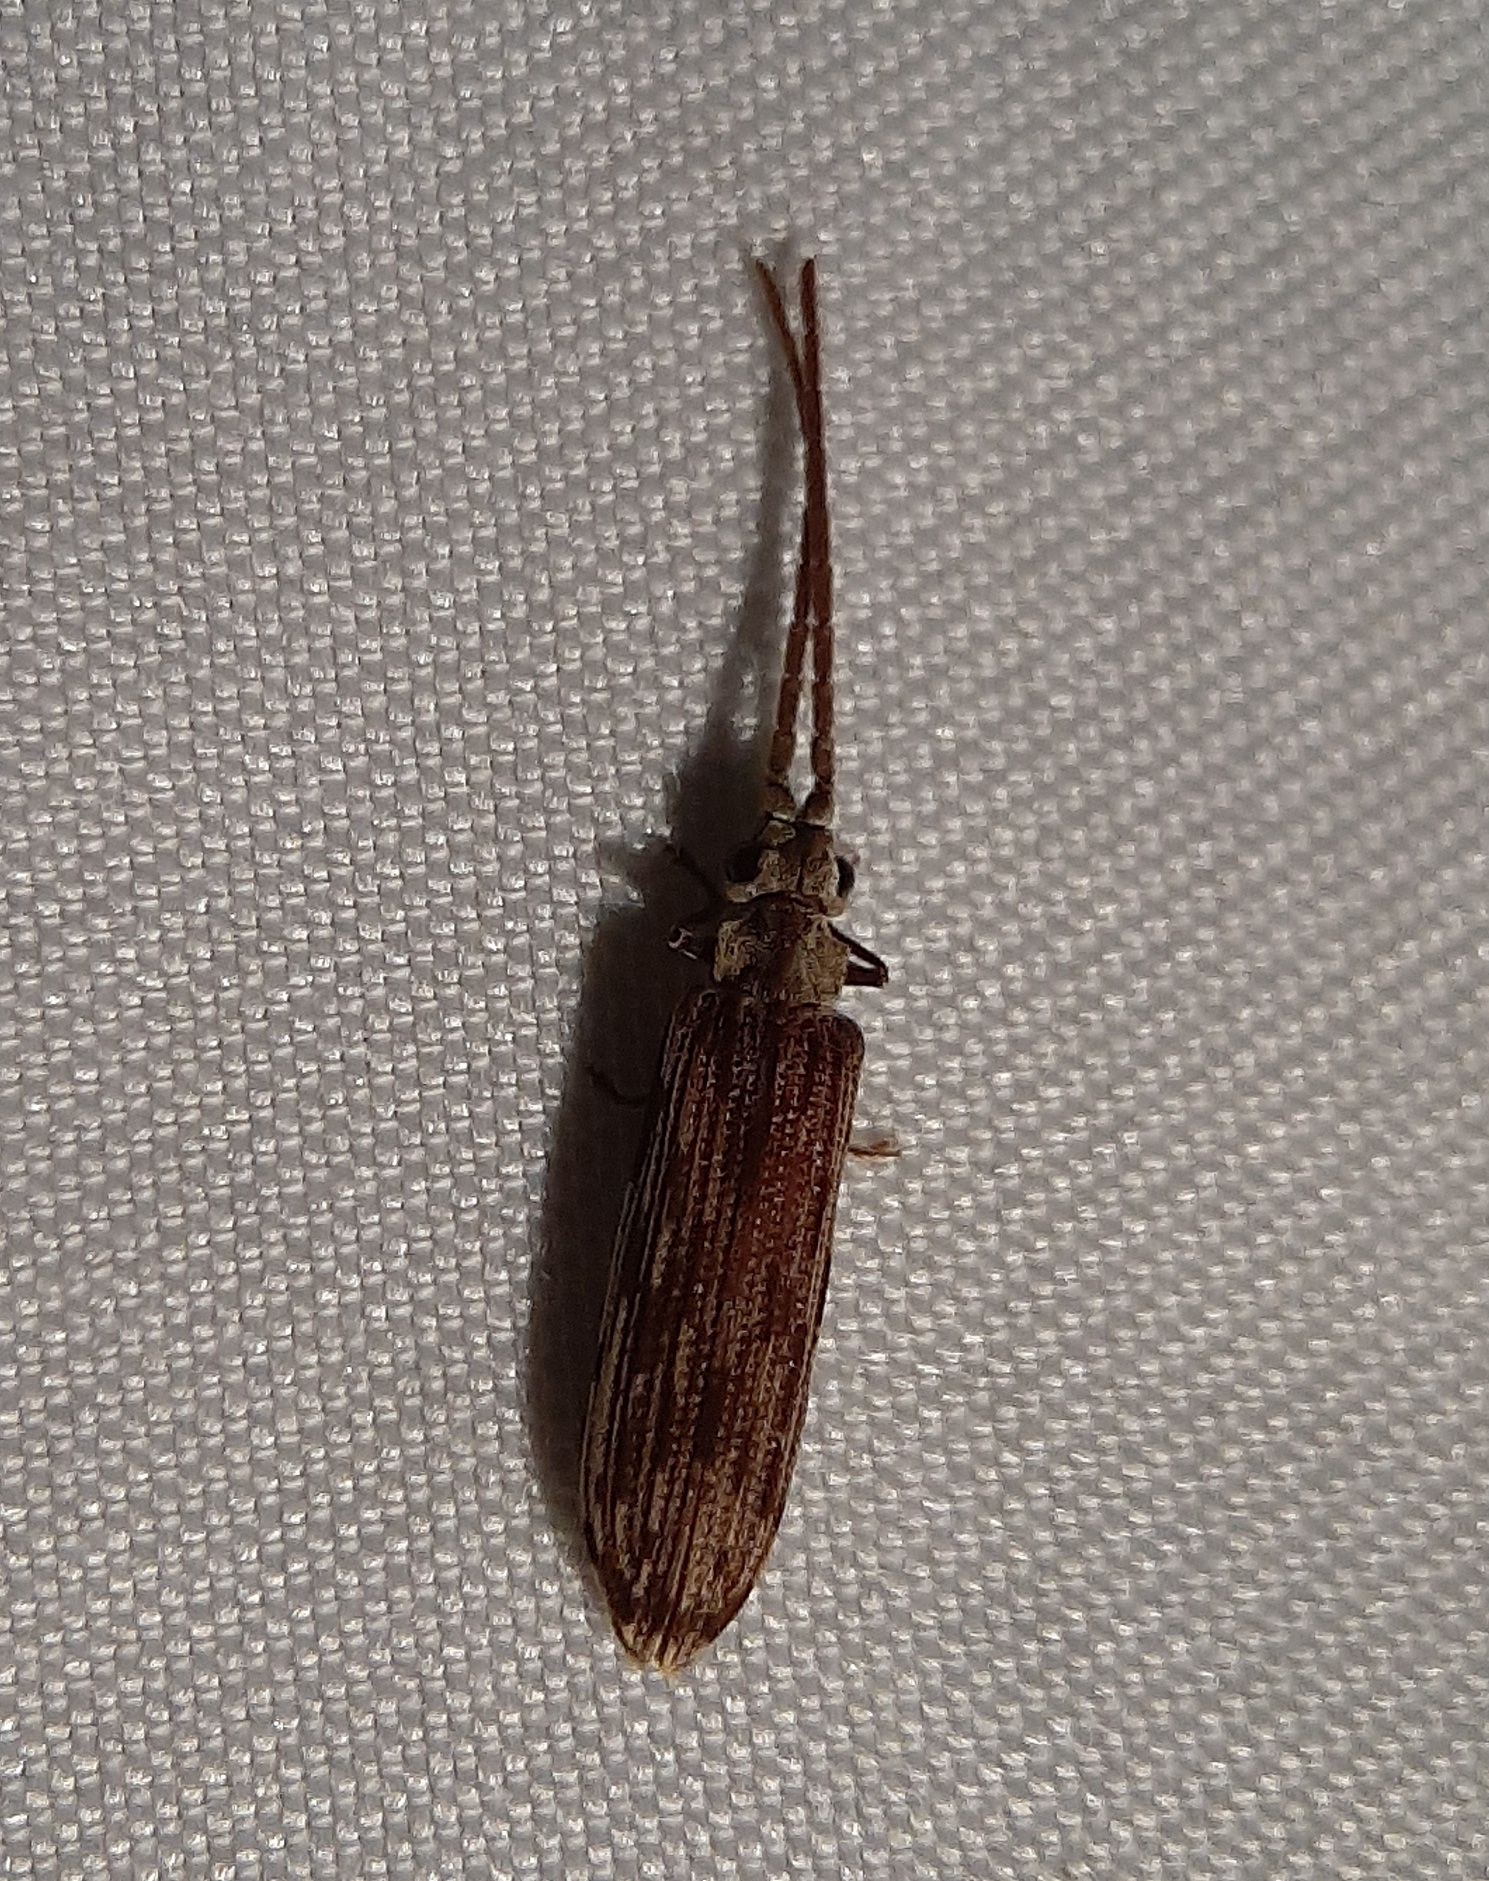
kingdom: Animalia
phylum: Arthropoda
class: Insecta
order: Coleoptera
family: Cupedidae
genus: Tenomerga
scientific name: Tenomerga cinerea
